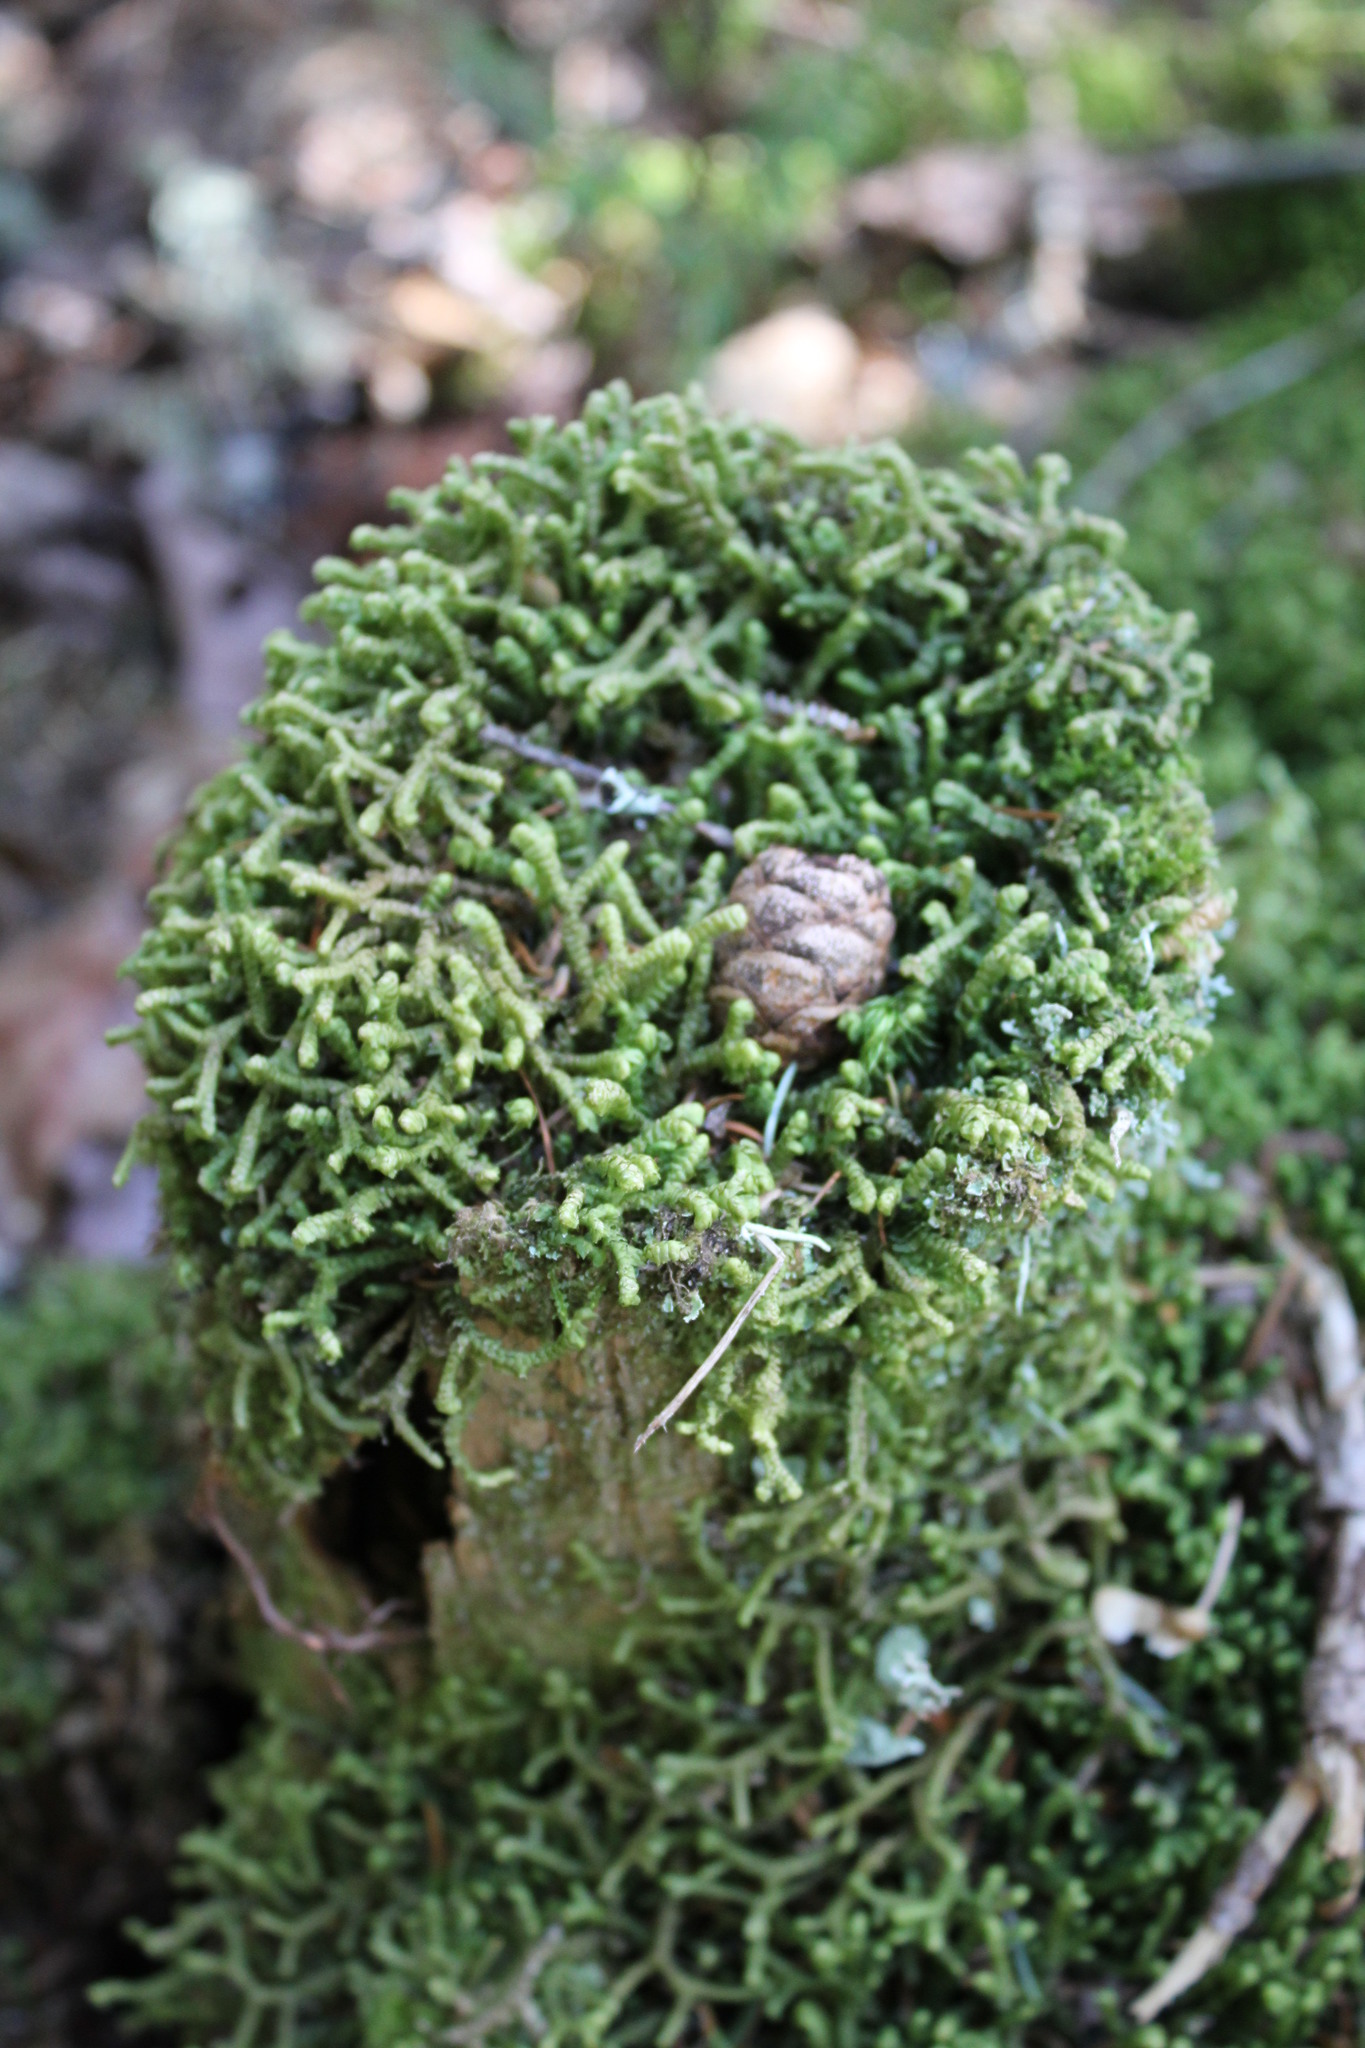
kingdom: Plantae
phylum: Marchantiophyta
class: Jungermanniopsida
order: Jungermanniales
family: Lepidoziaceae
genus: Bazzania
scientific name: Bazzania trilobata
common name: Three-lobed whipwort
